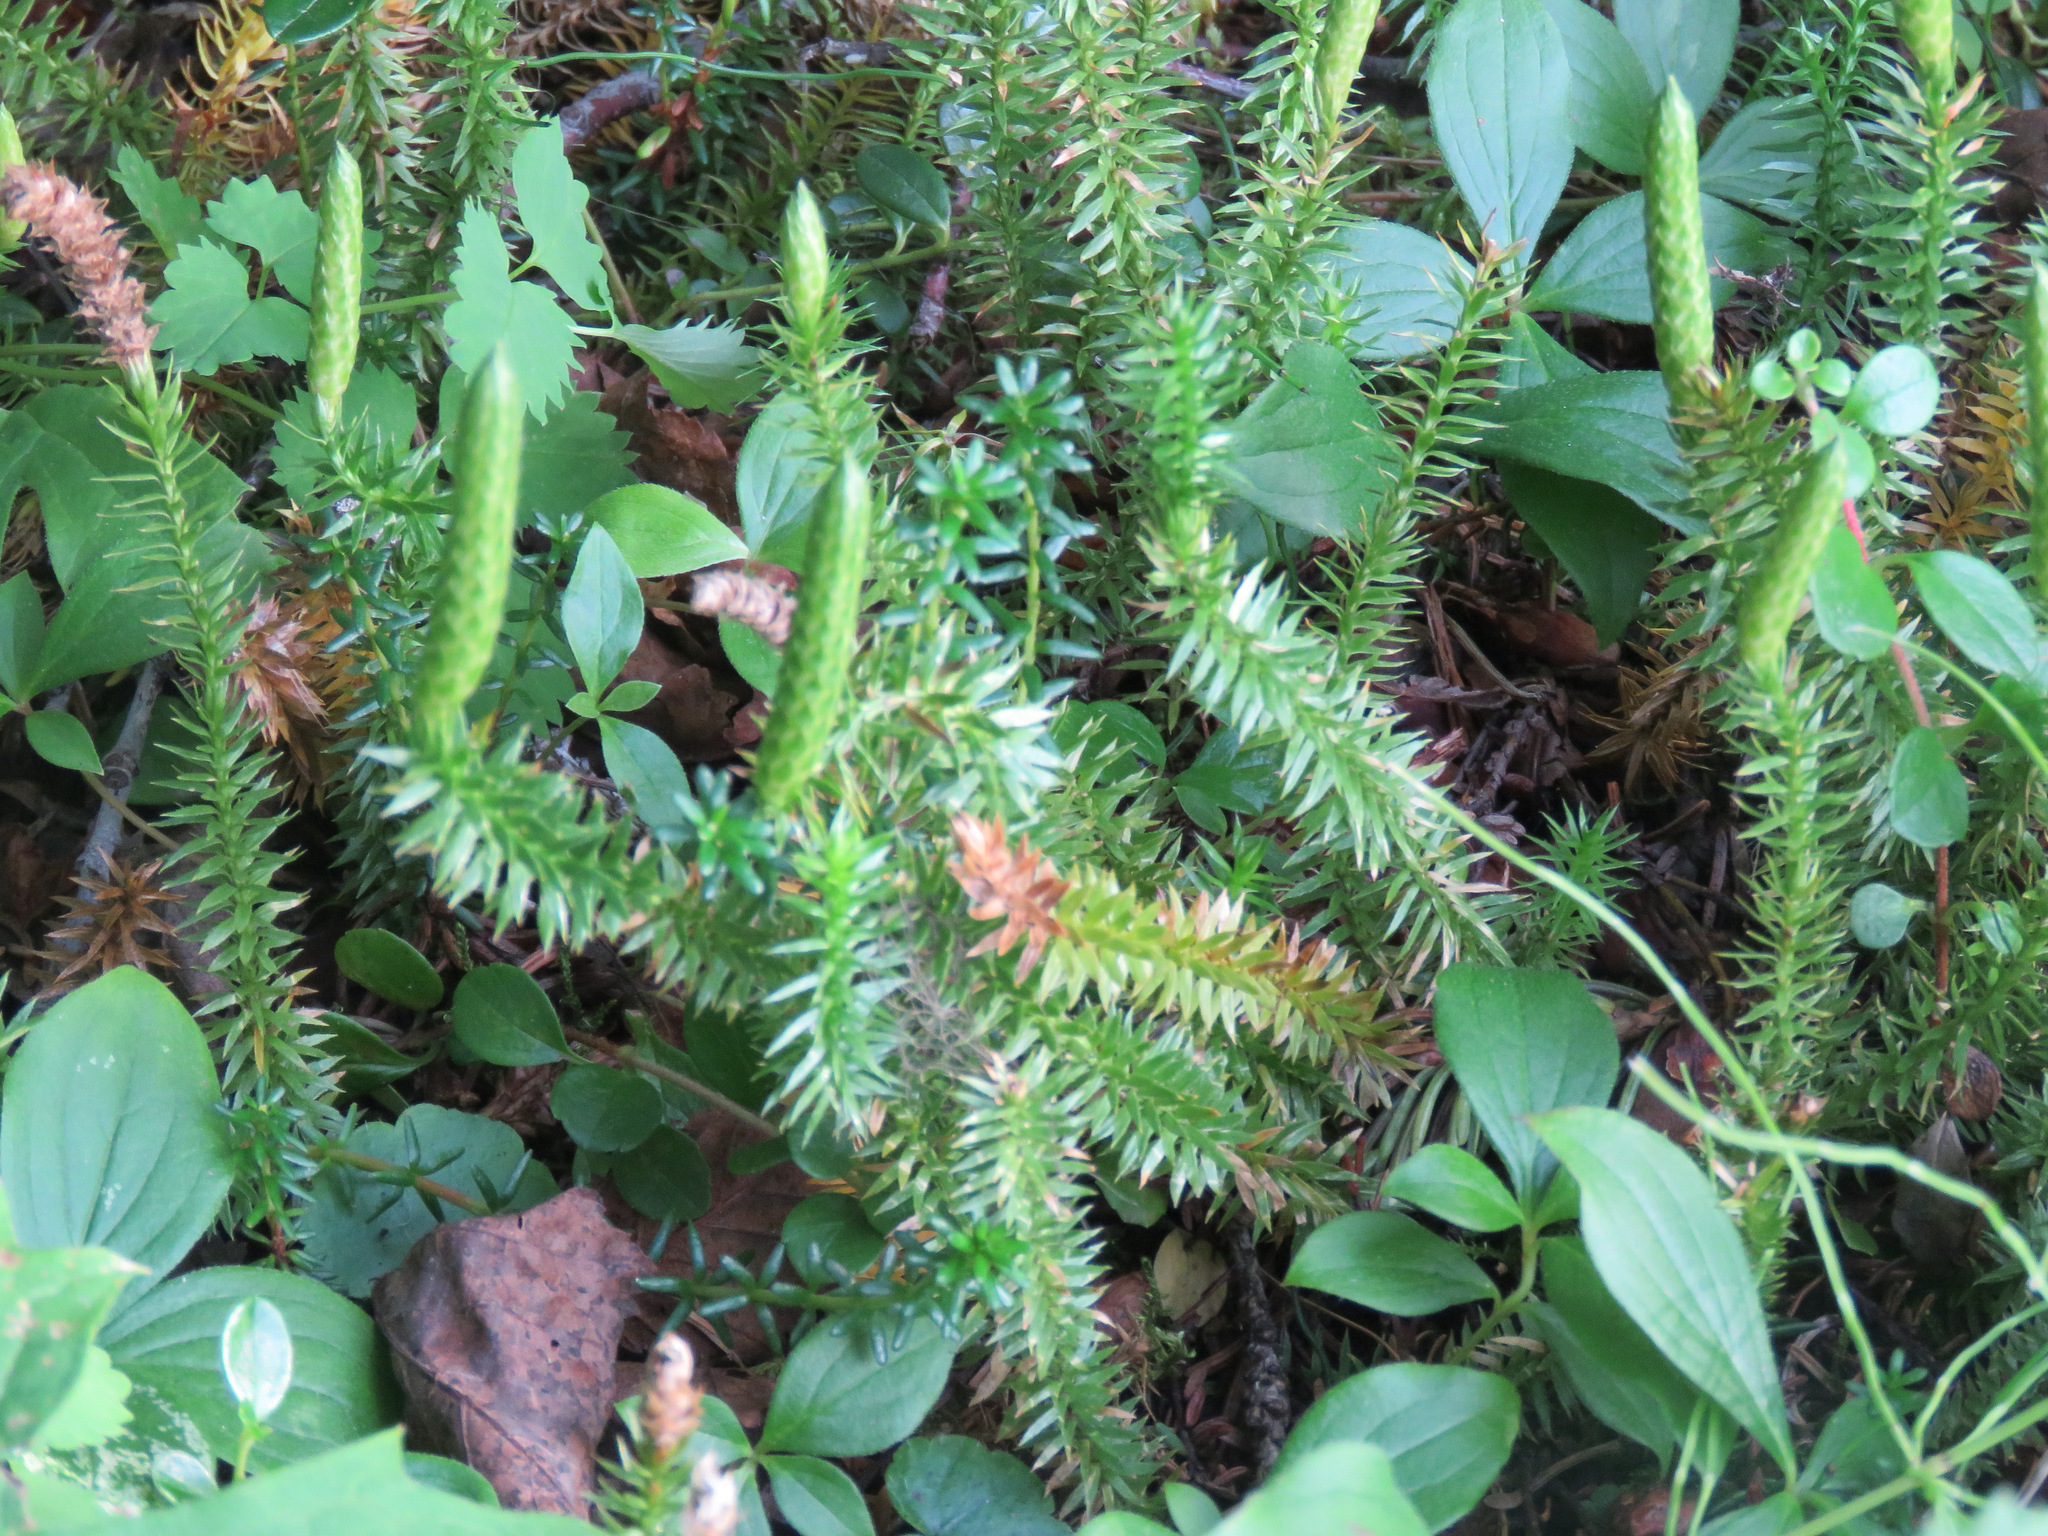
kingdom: Plantae
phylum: Tracheophyta
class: Lycopodiopsida
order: Lycopodiales
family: Lycopodiaceae
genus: Spinulum
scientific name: Spinulum annotinum
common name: Interrupted club-moss
